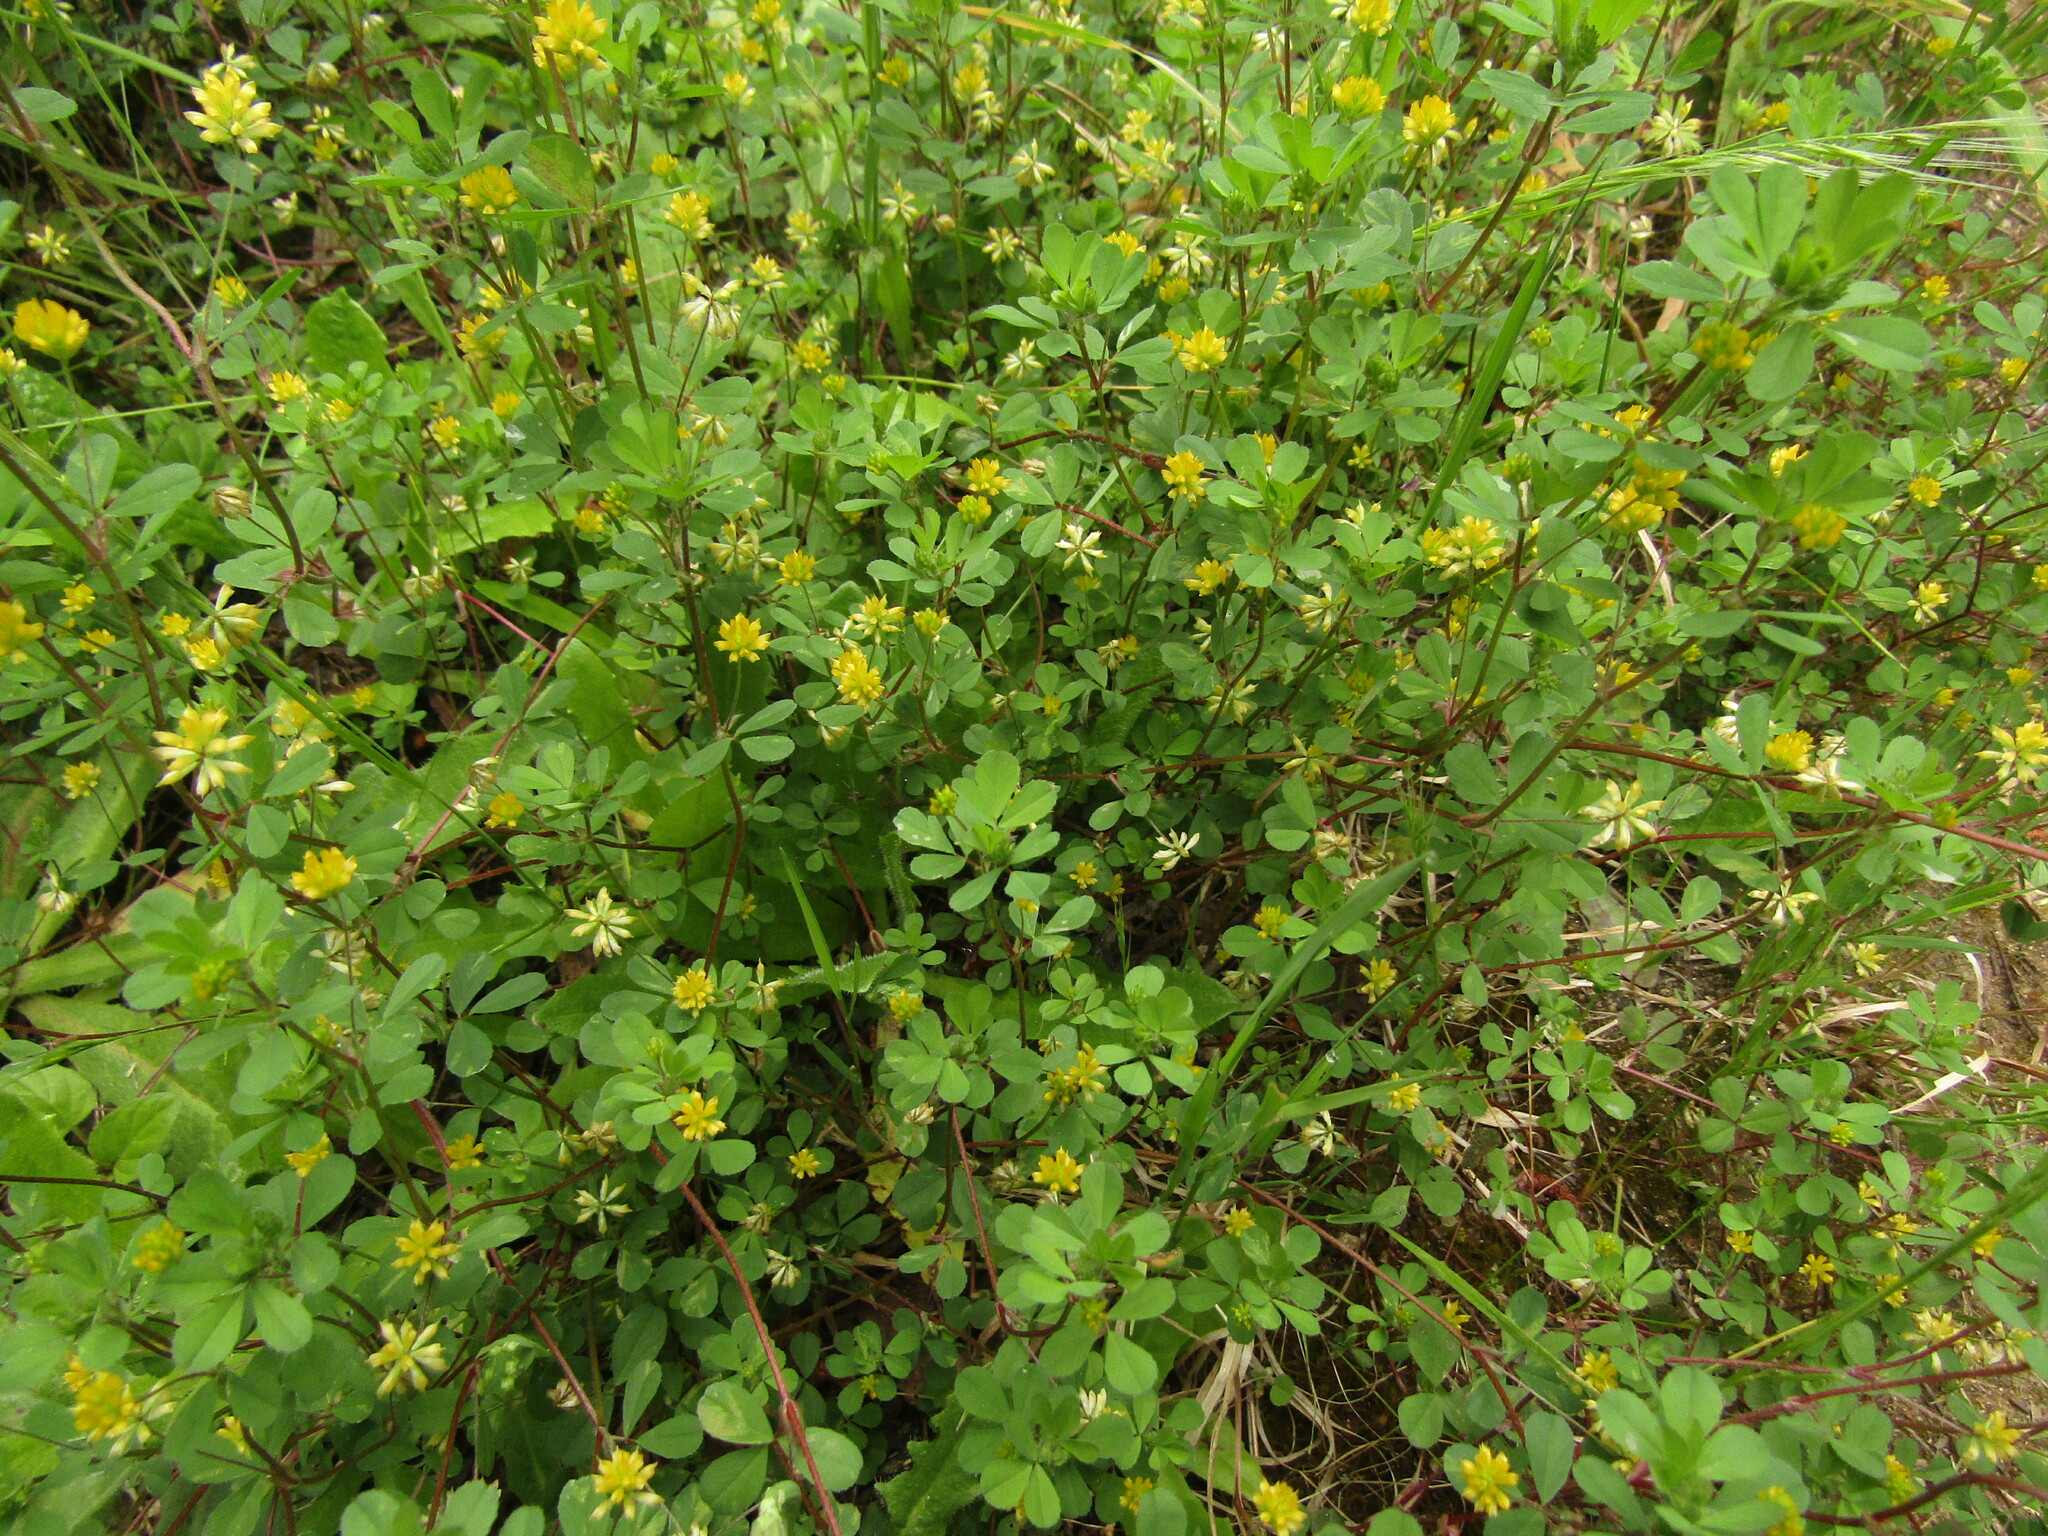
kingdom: Plantae
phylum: Tracheophyta
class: Magnoliopsida
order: Fabales
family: Fabaceae
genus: Trifolium
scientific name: Trifolium dubium
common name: Suckling clover
